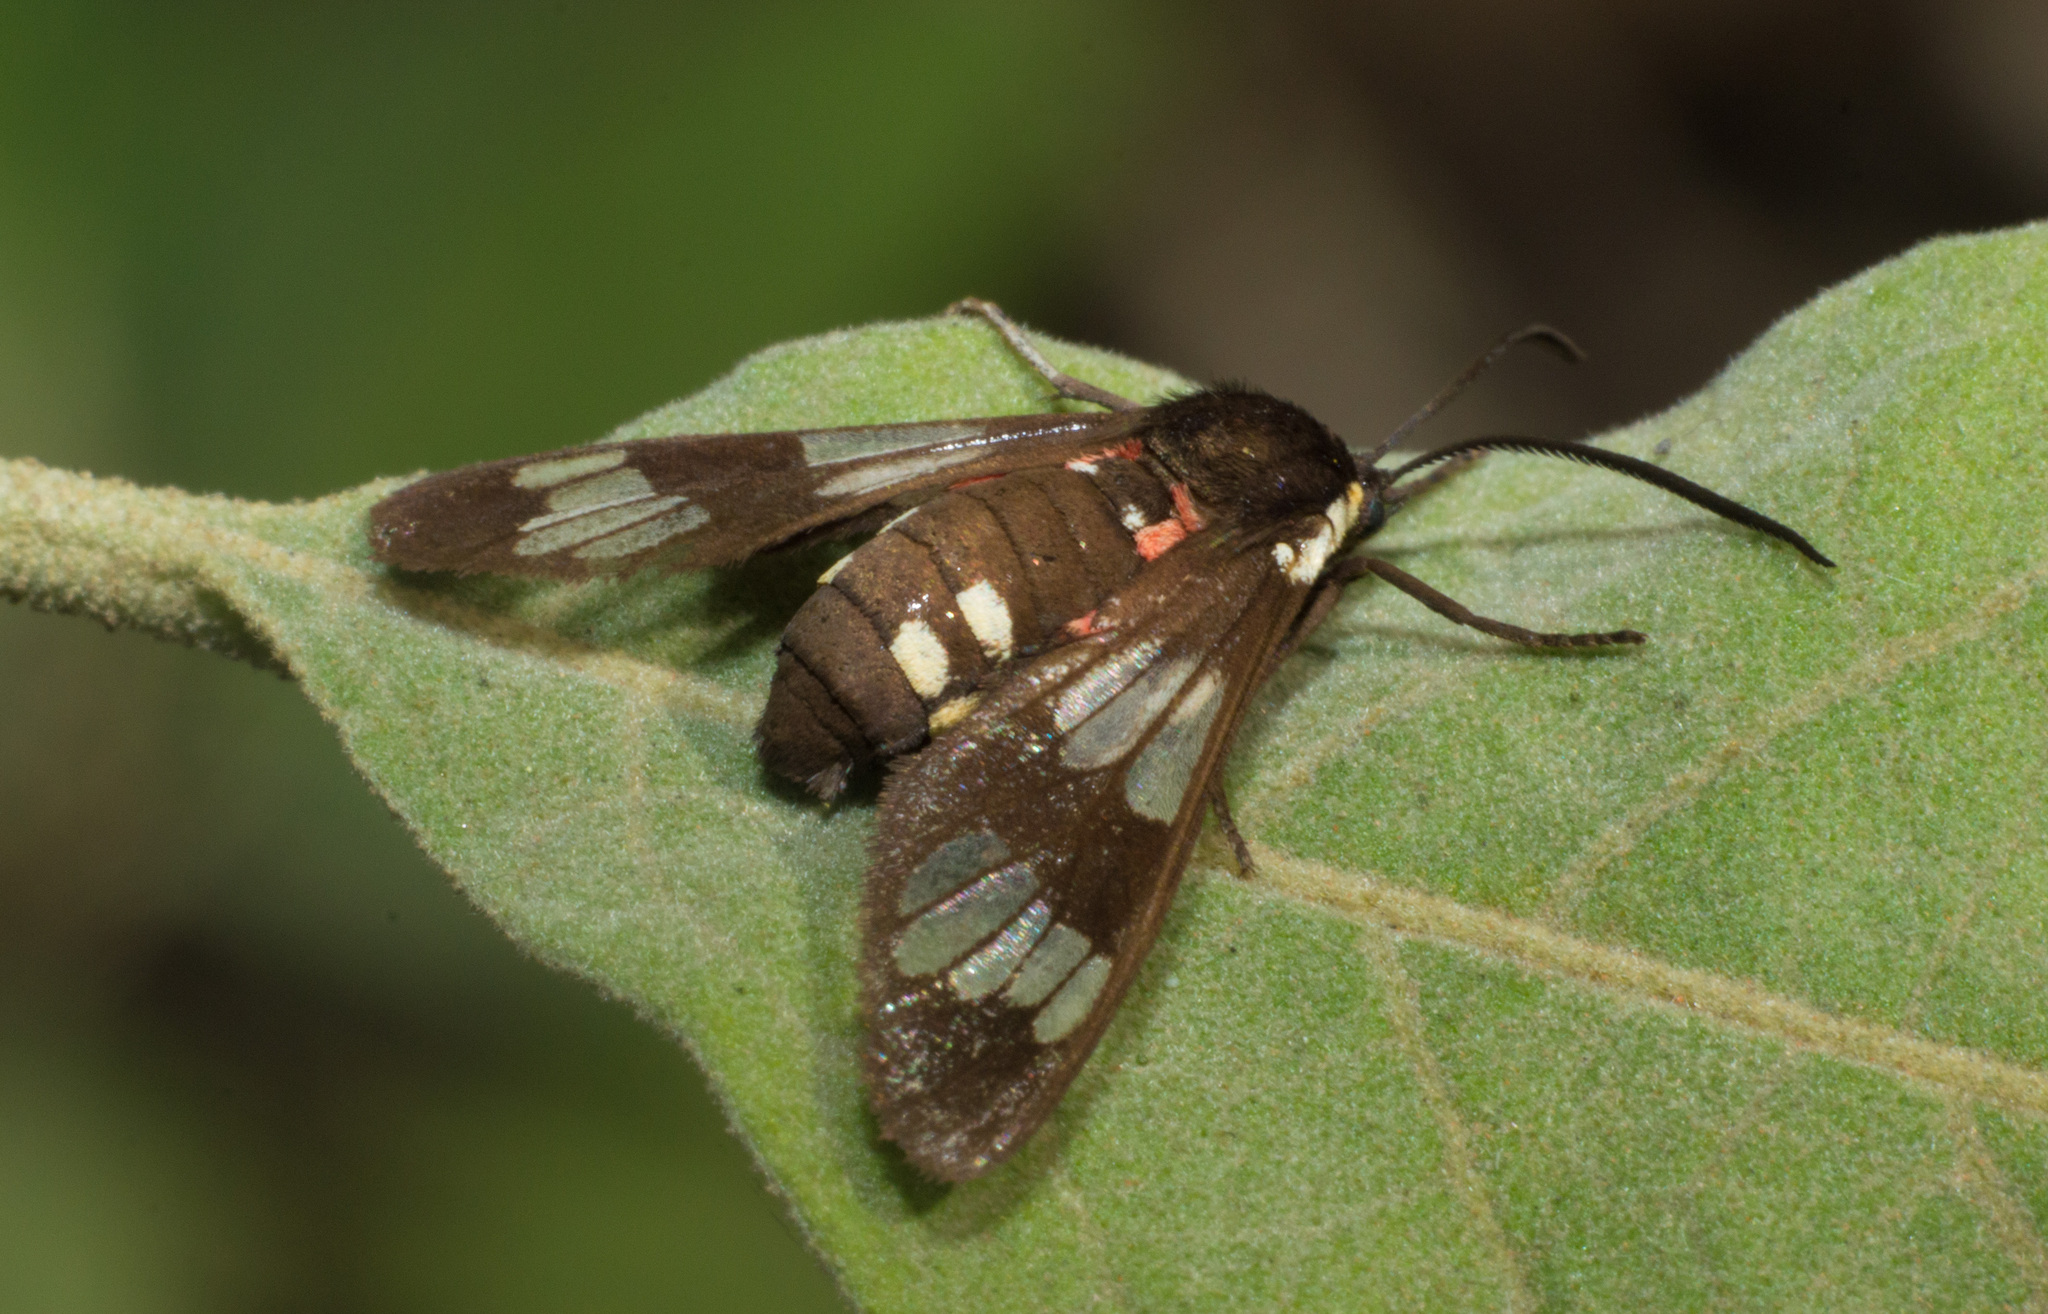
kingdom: Animalia
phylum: Arthropoda
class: Insecta
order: Lepidoptera
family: Erebidae
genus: Eurata
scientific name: Eurata hermione
